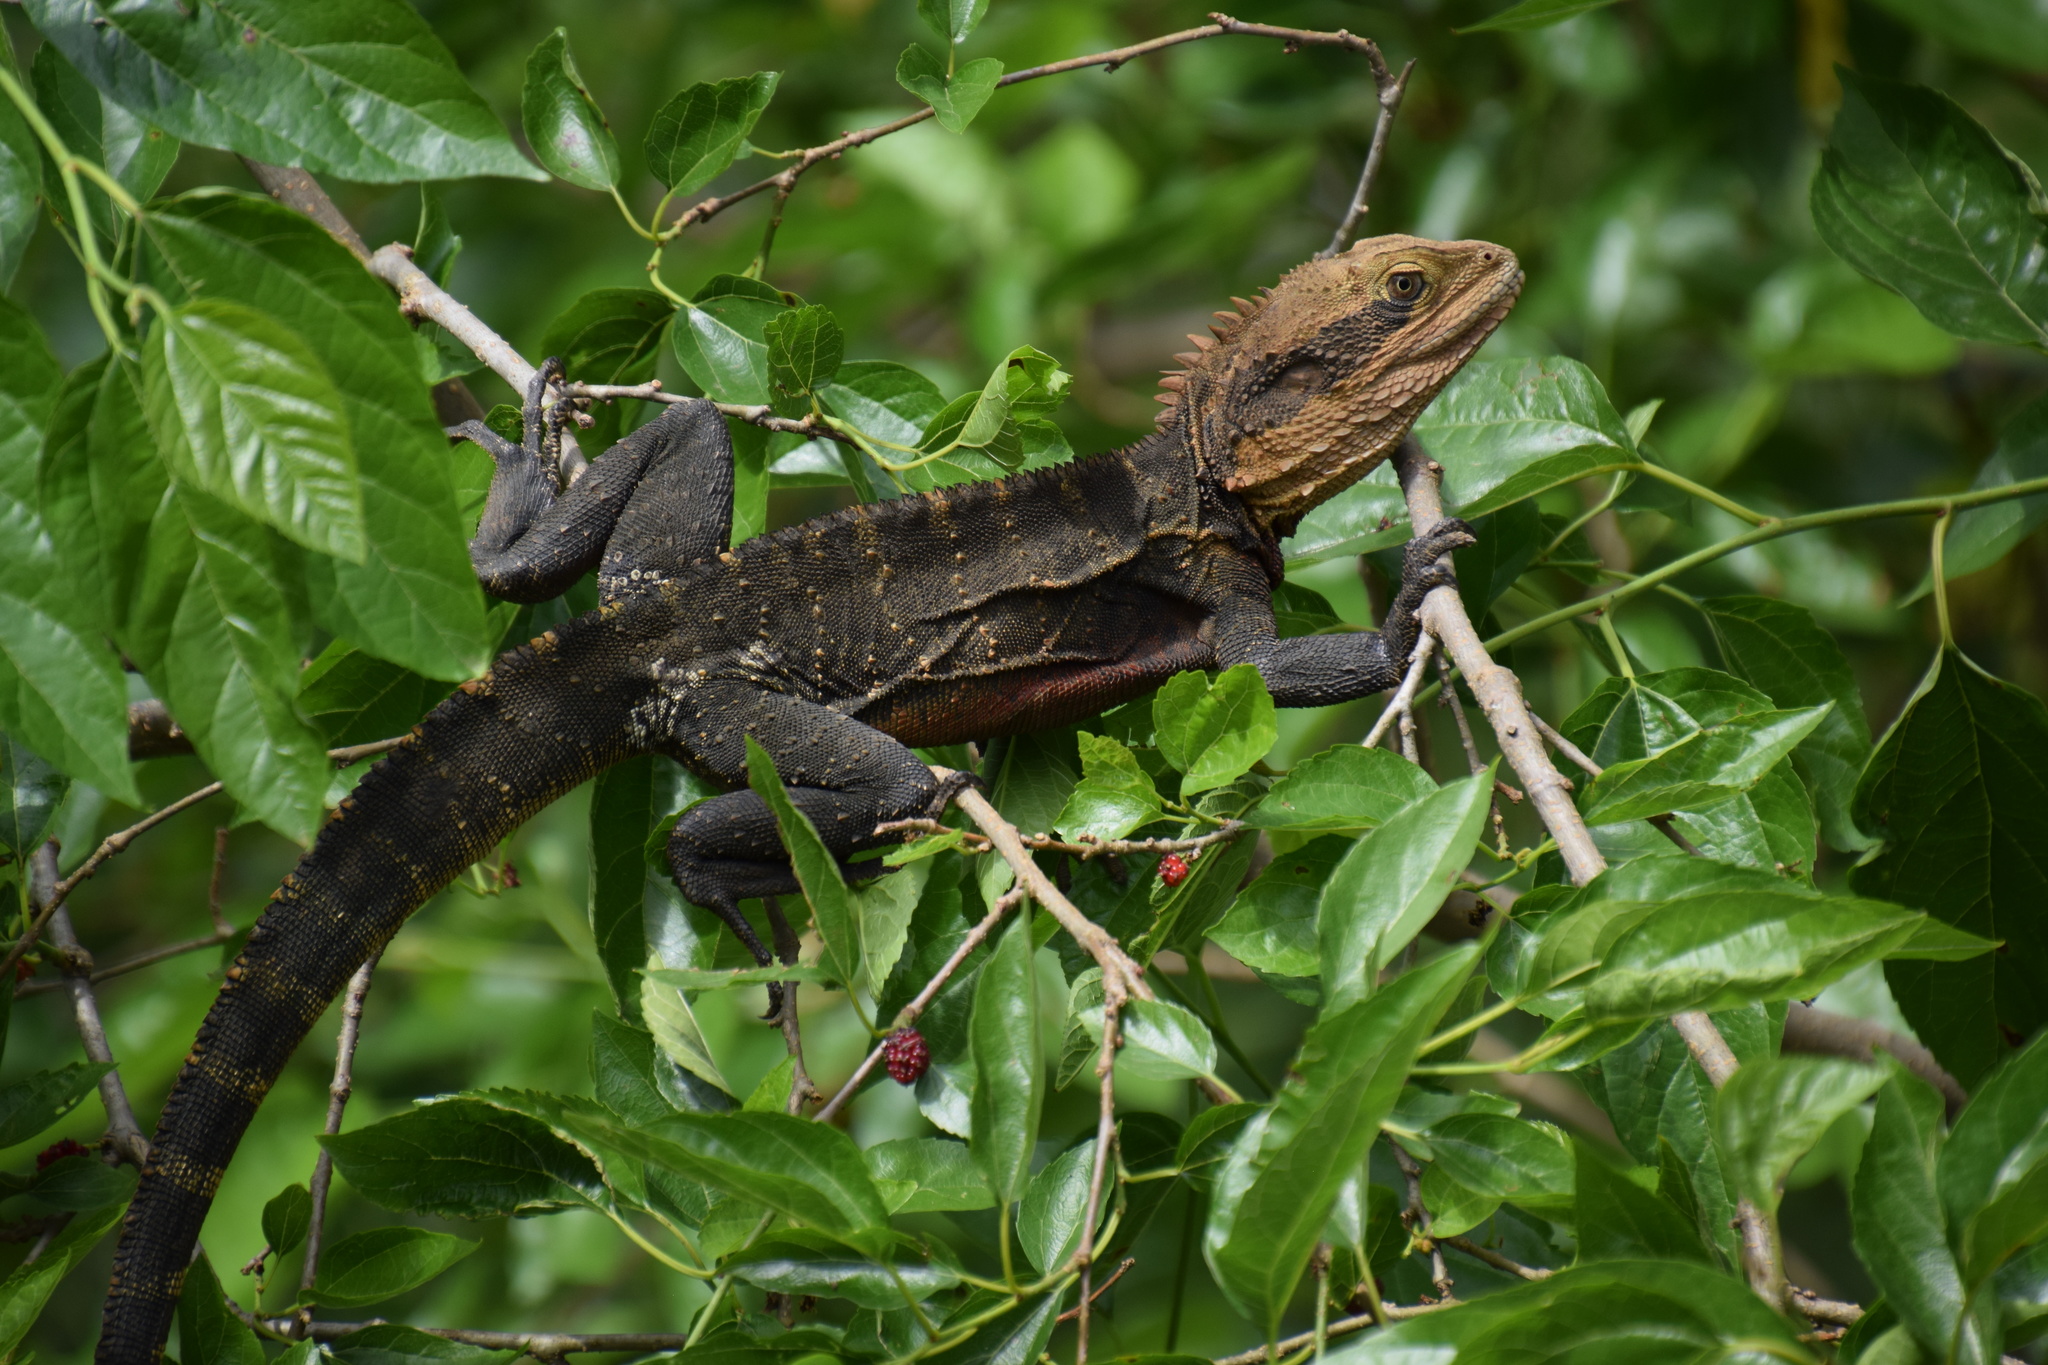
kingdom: Animalia
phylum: Chordata
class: Squamata
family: Agamidae
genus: Intellagama
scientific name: Intellagama lesueurii
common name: Eastern water dragon
